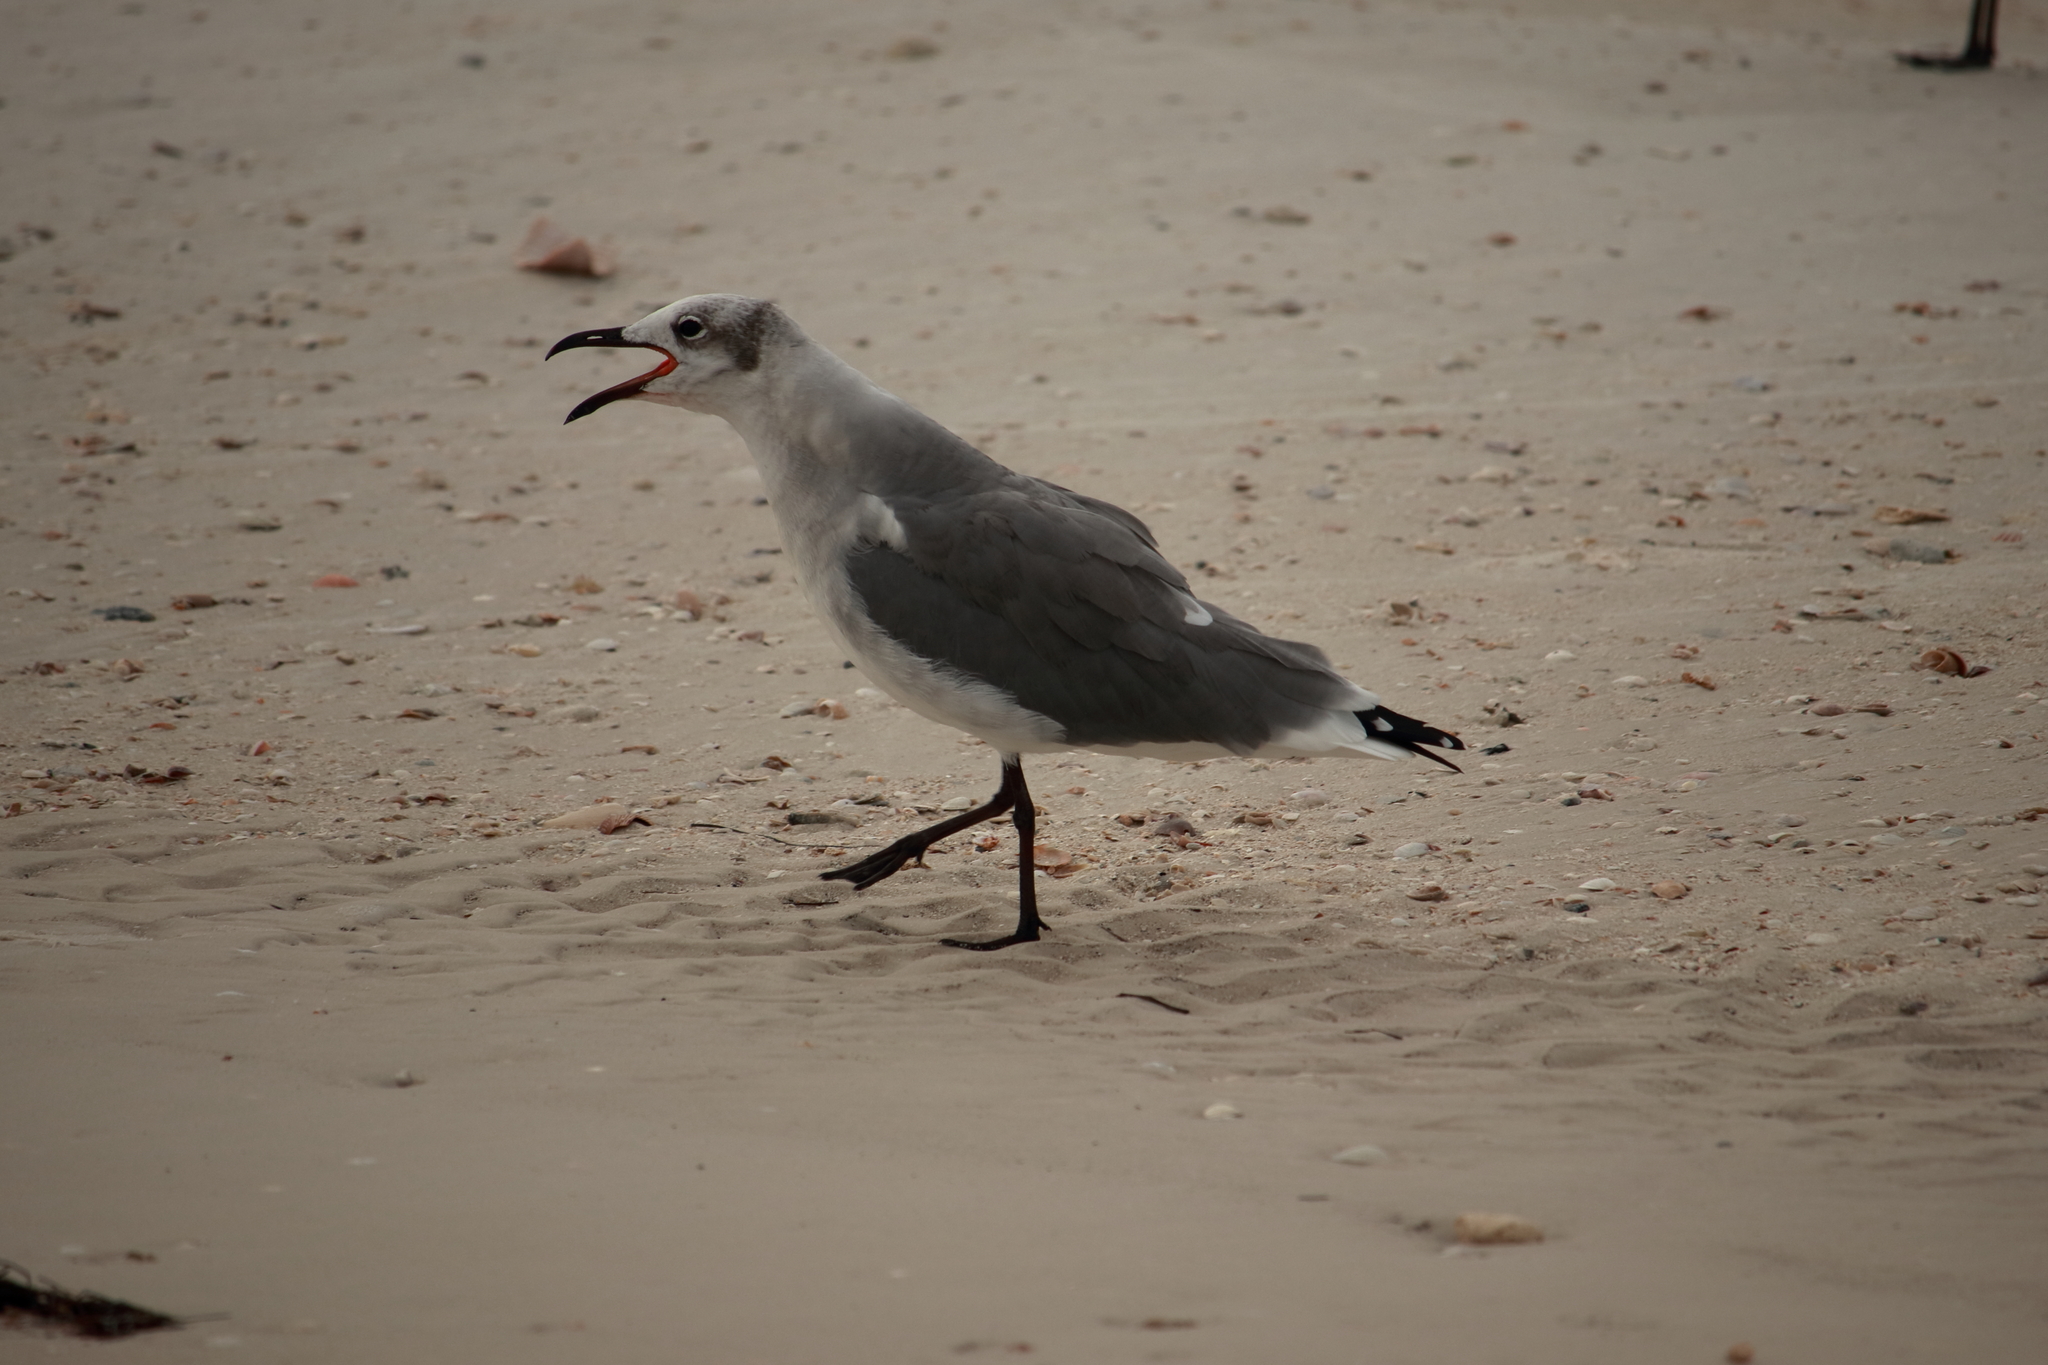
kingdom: Animalia
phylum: Chordata
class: Aves
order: Charadriiformes
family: Laridae
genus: Leucophaeus
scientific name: Leucophaeus atricilla
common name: Laughing gull
